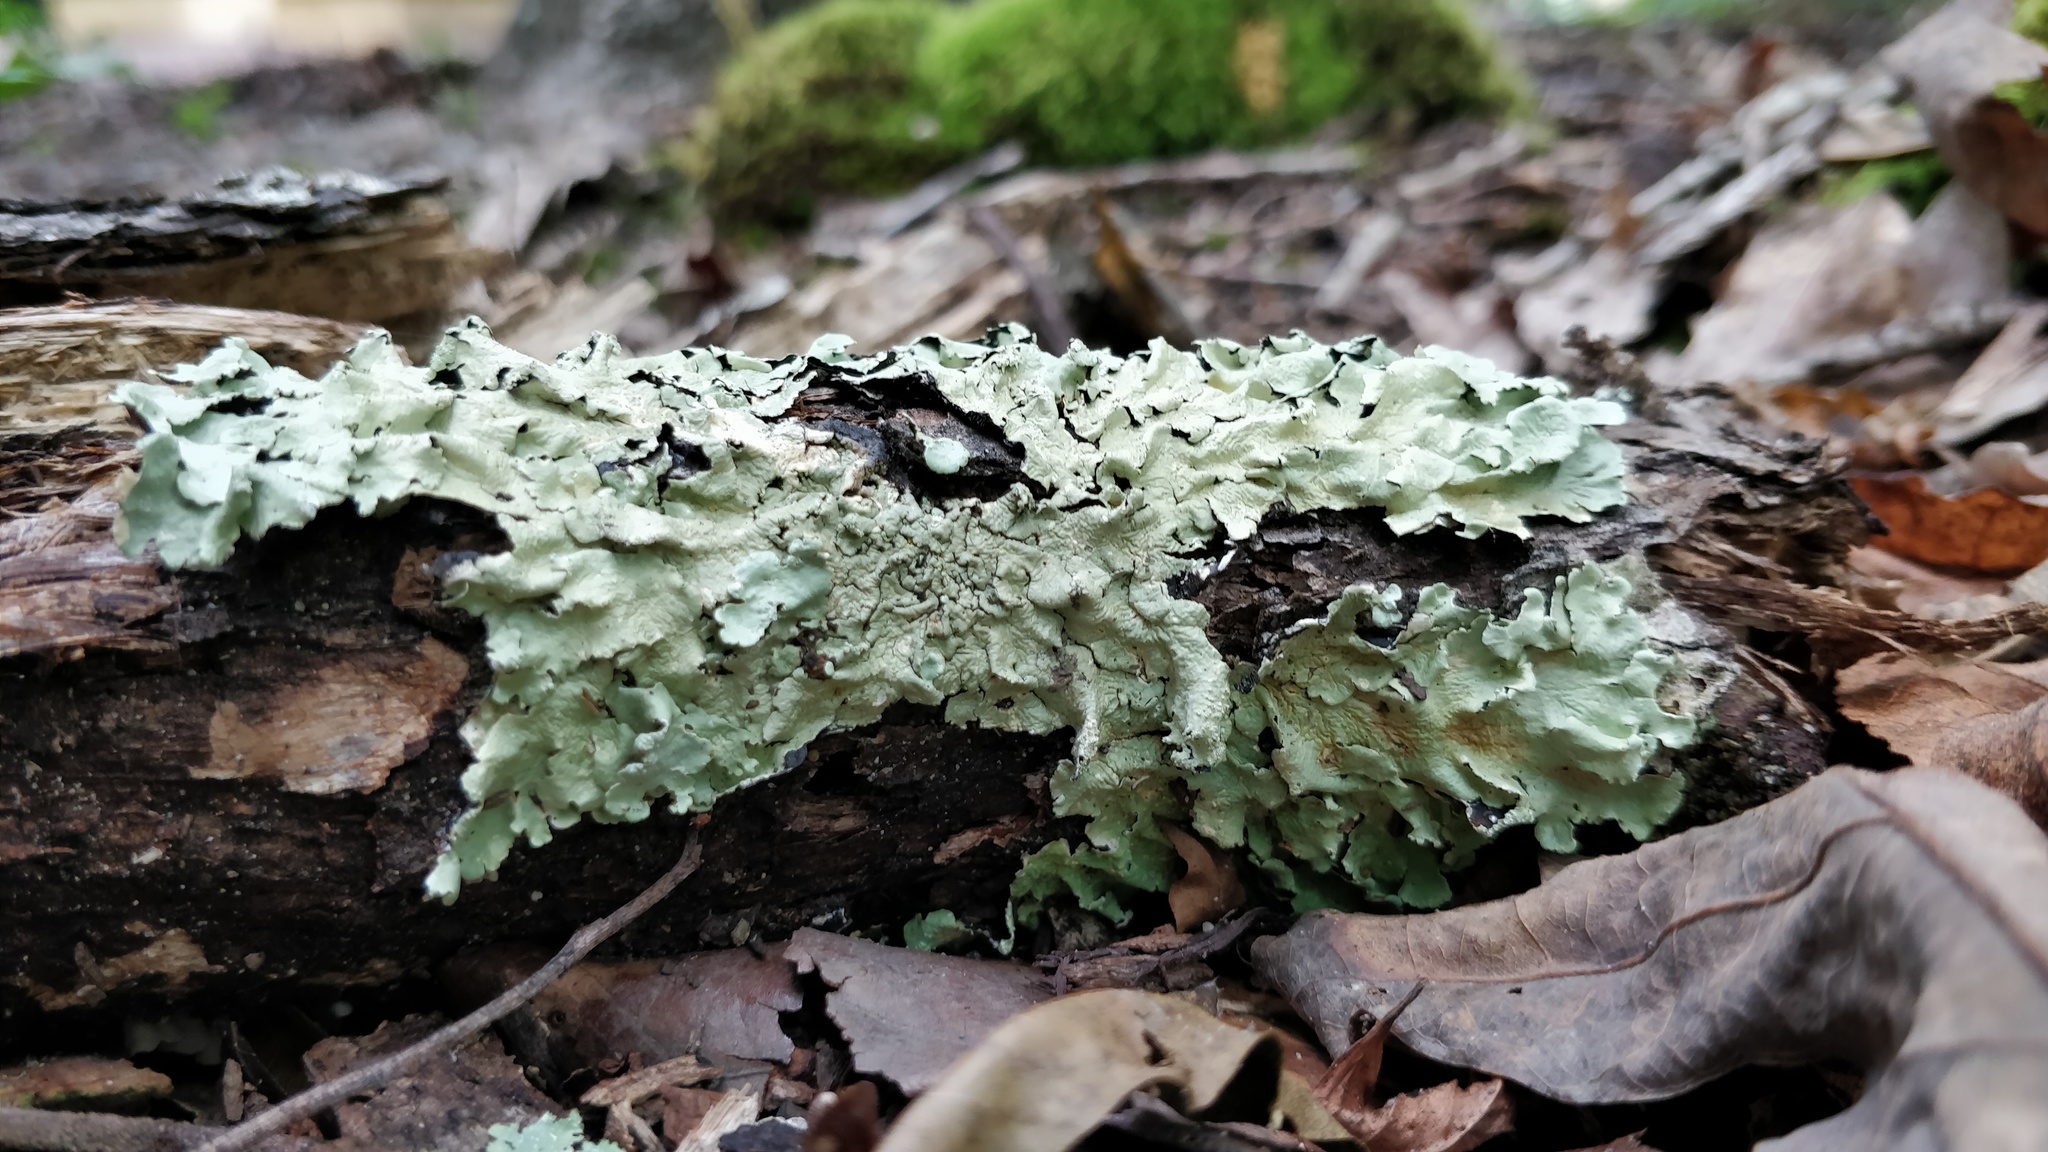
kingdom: Fungi
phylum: Ascomycota
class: Lecanoromycetes
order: Lecanorales
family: Parmeliaceae
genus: Flavoparmelia
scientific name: Flavoparmelia caperata
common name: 40-mile per hour lichen
